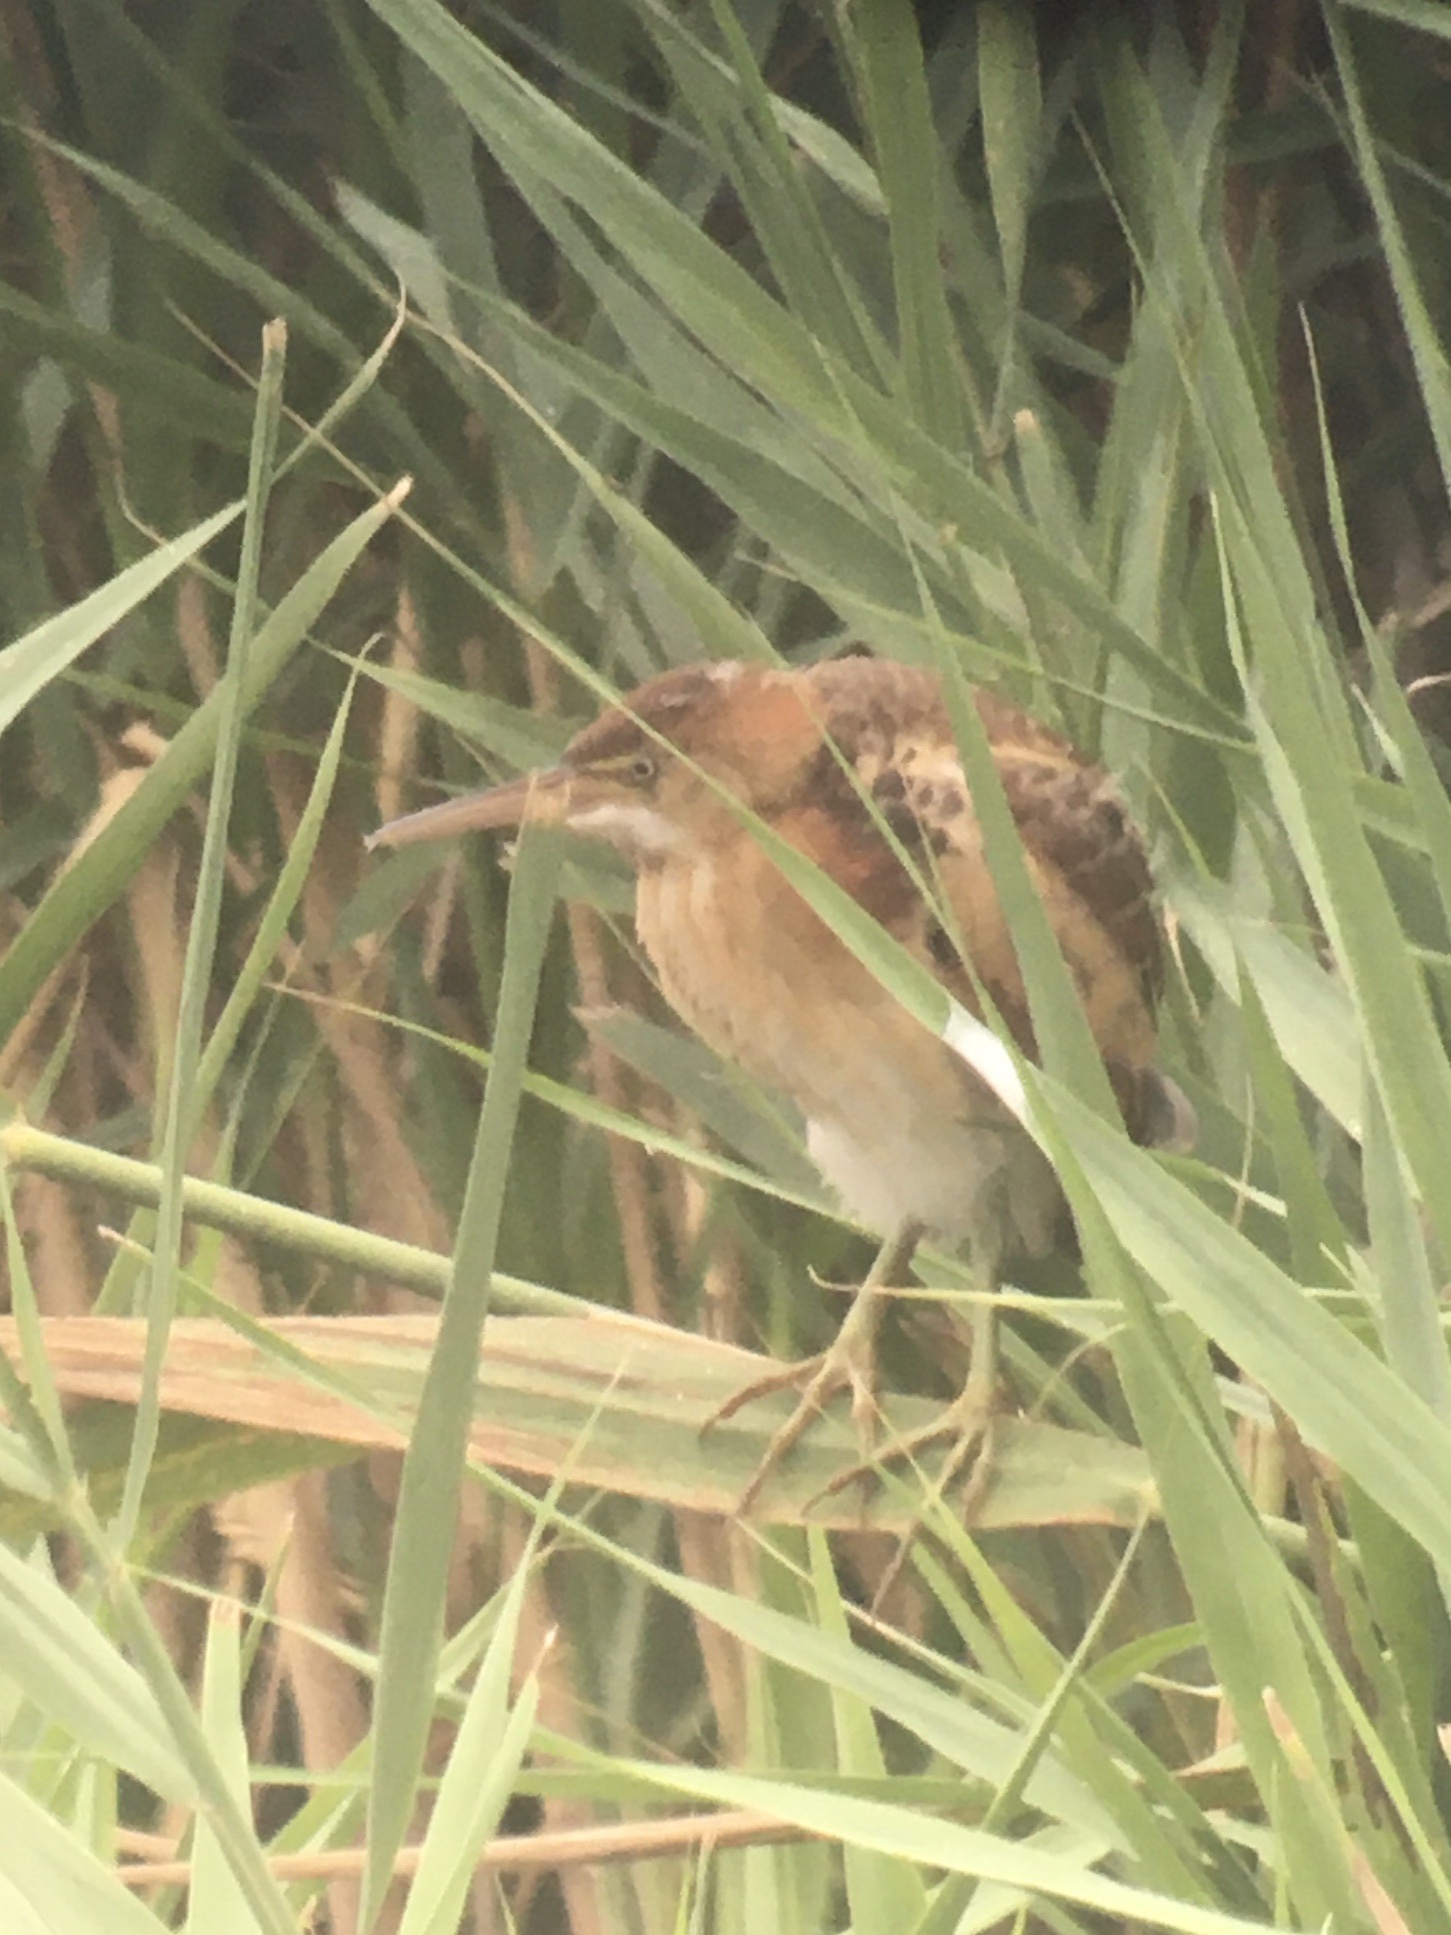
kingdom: Animalia
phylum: Chordata
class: Aves
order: Pelecaniformes
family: Ardeidae
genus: Ixobrychus
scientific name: Ixobrychus exilis
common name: Least bittern
